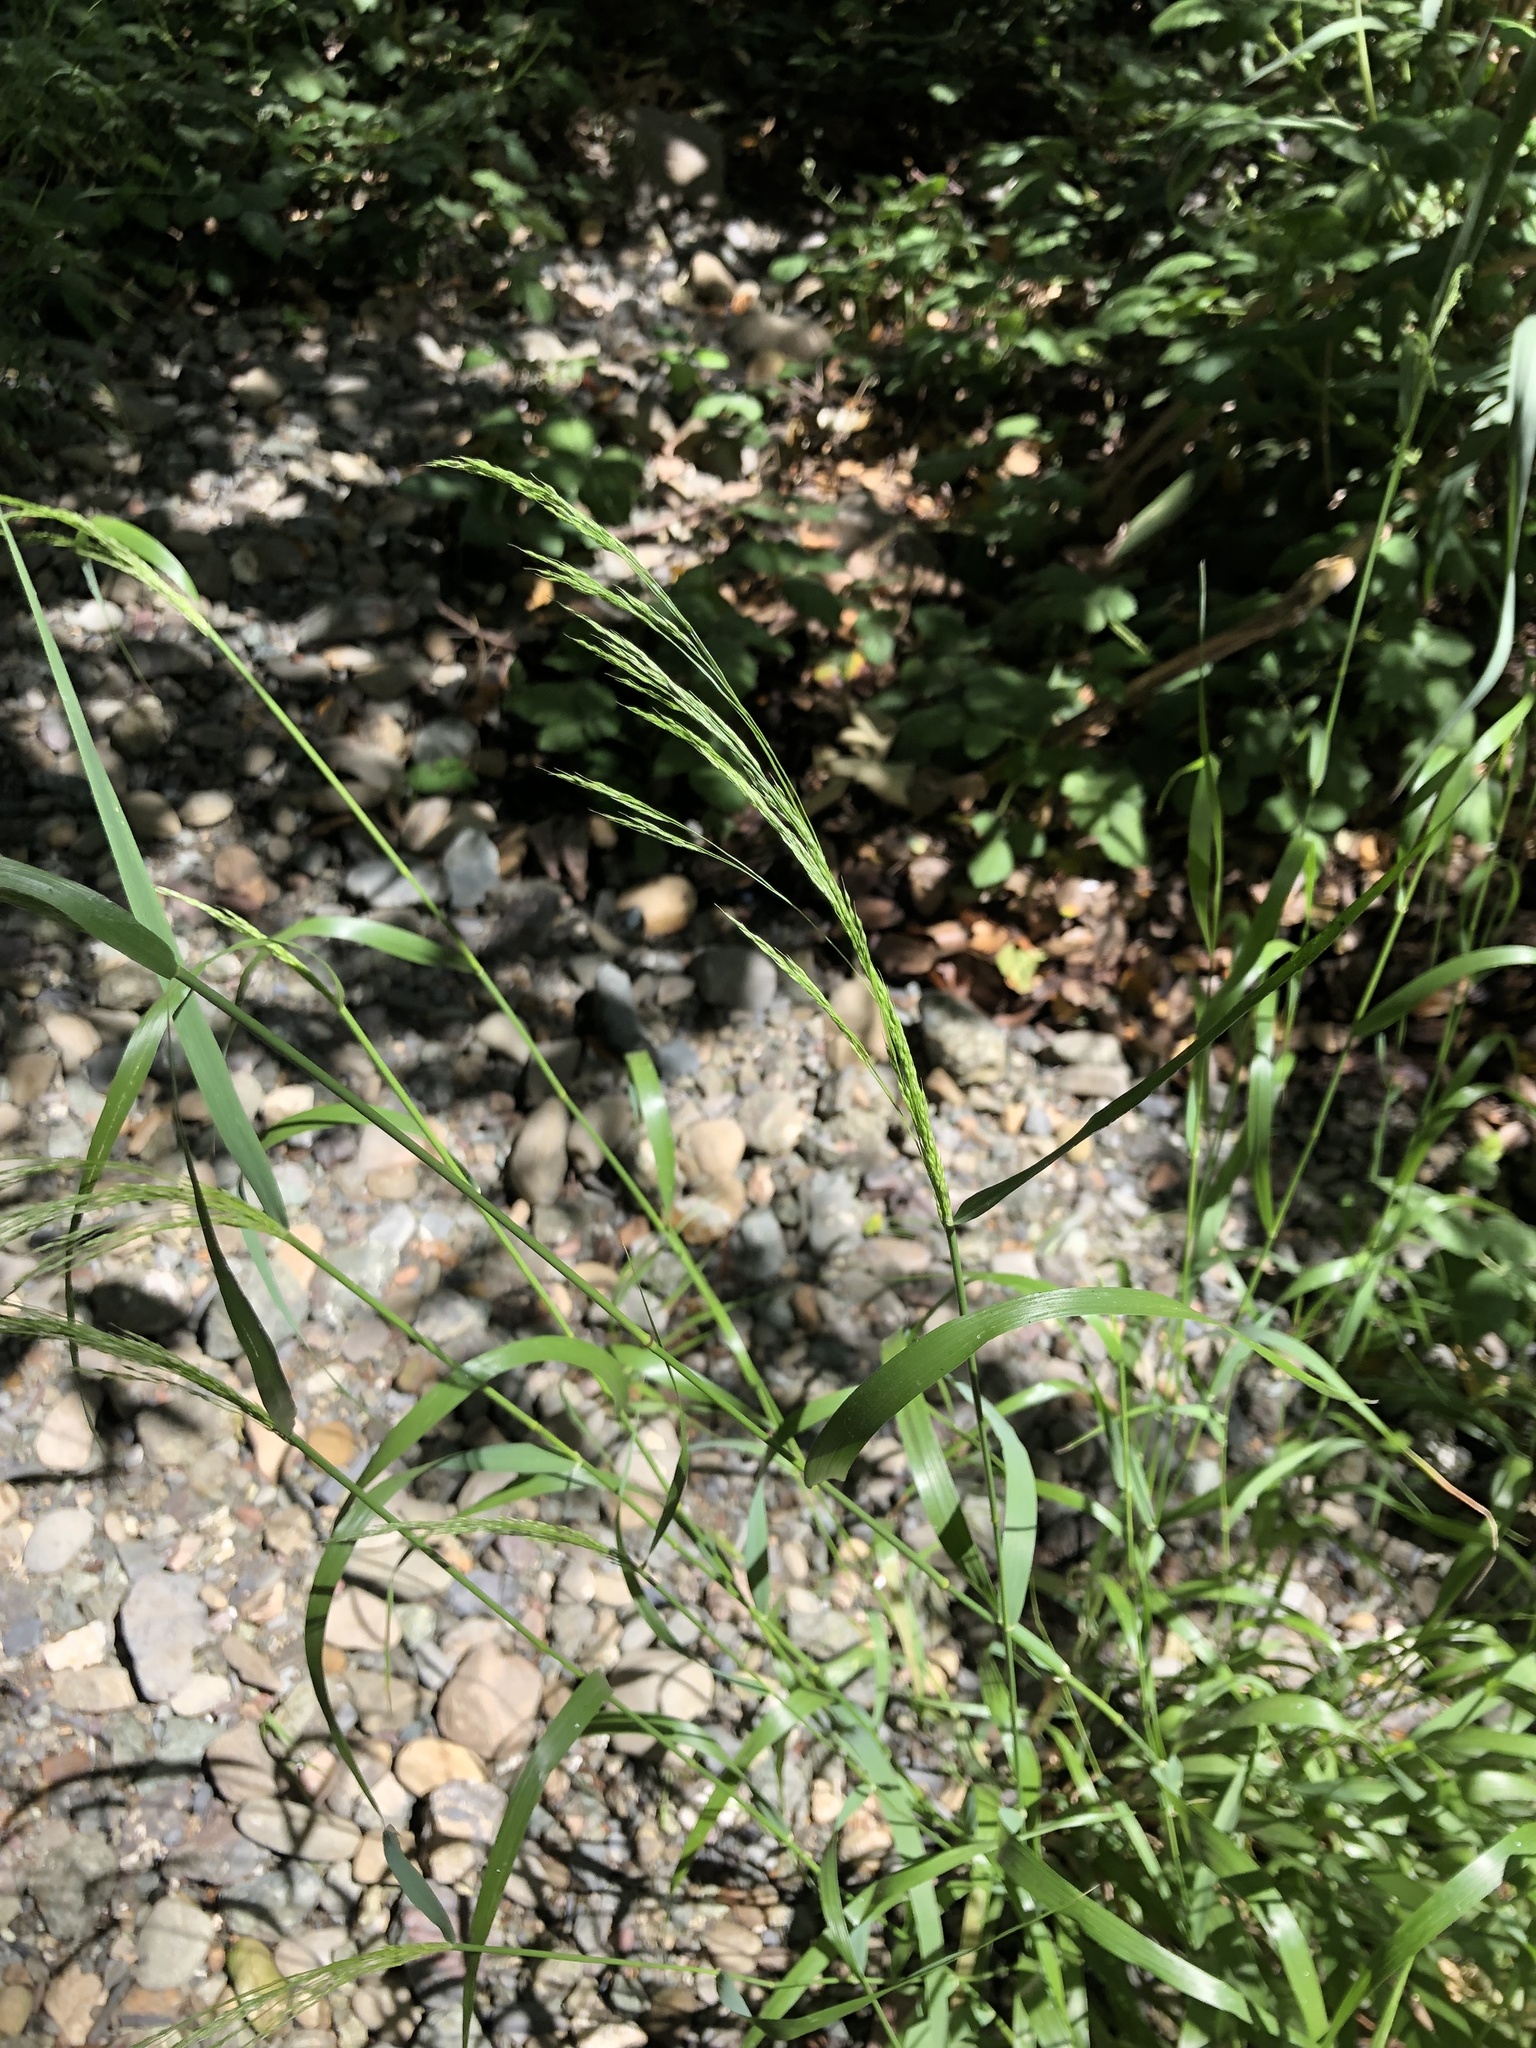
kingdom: Plantae
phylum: Tracheophyta
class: Liliopsida
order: Poales
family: Poaceae
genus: Oloptum
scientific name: Oloptum miliaceum
